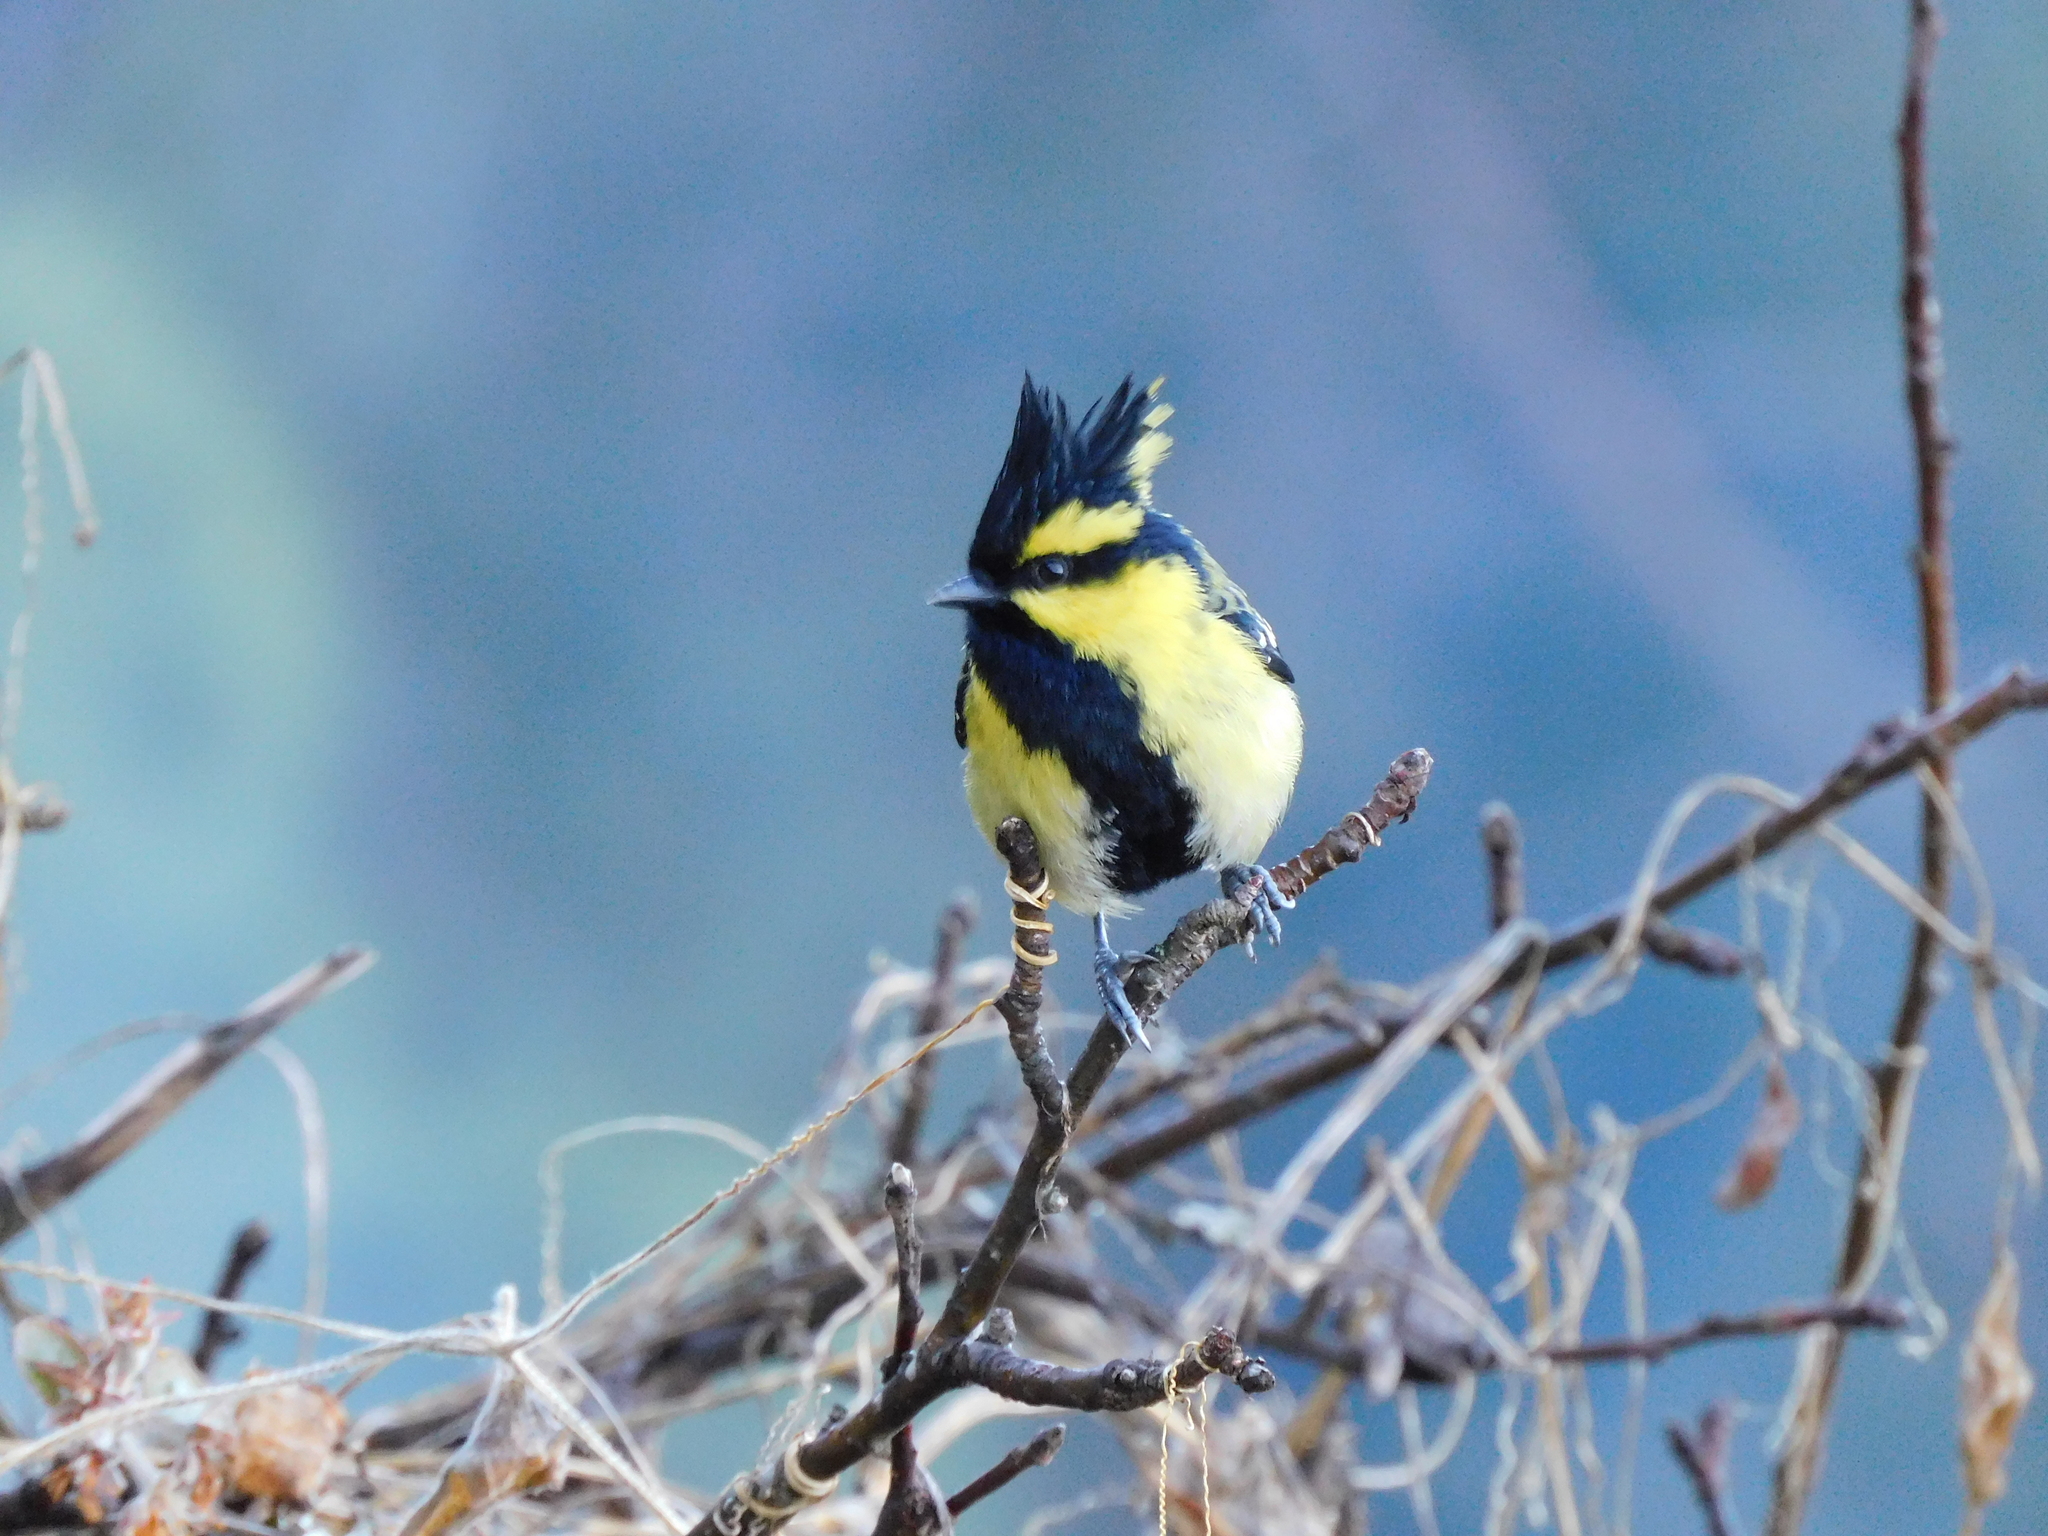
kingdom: Animalia
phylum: Chordata
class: Aves
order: Passeriformes
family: Paridae
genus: Parus
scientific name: Parus xanthogenys
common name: Black-lored tit
